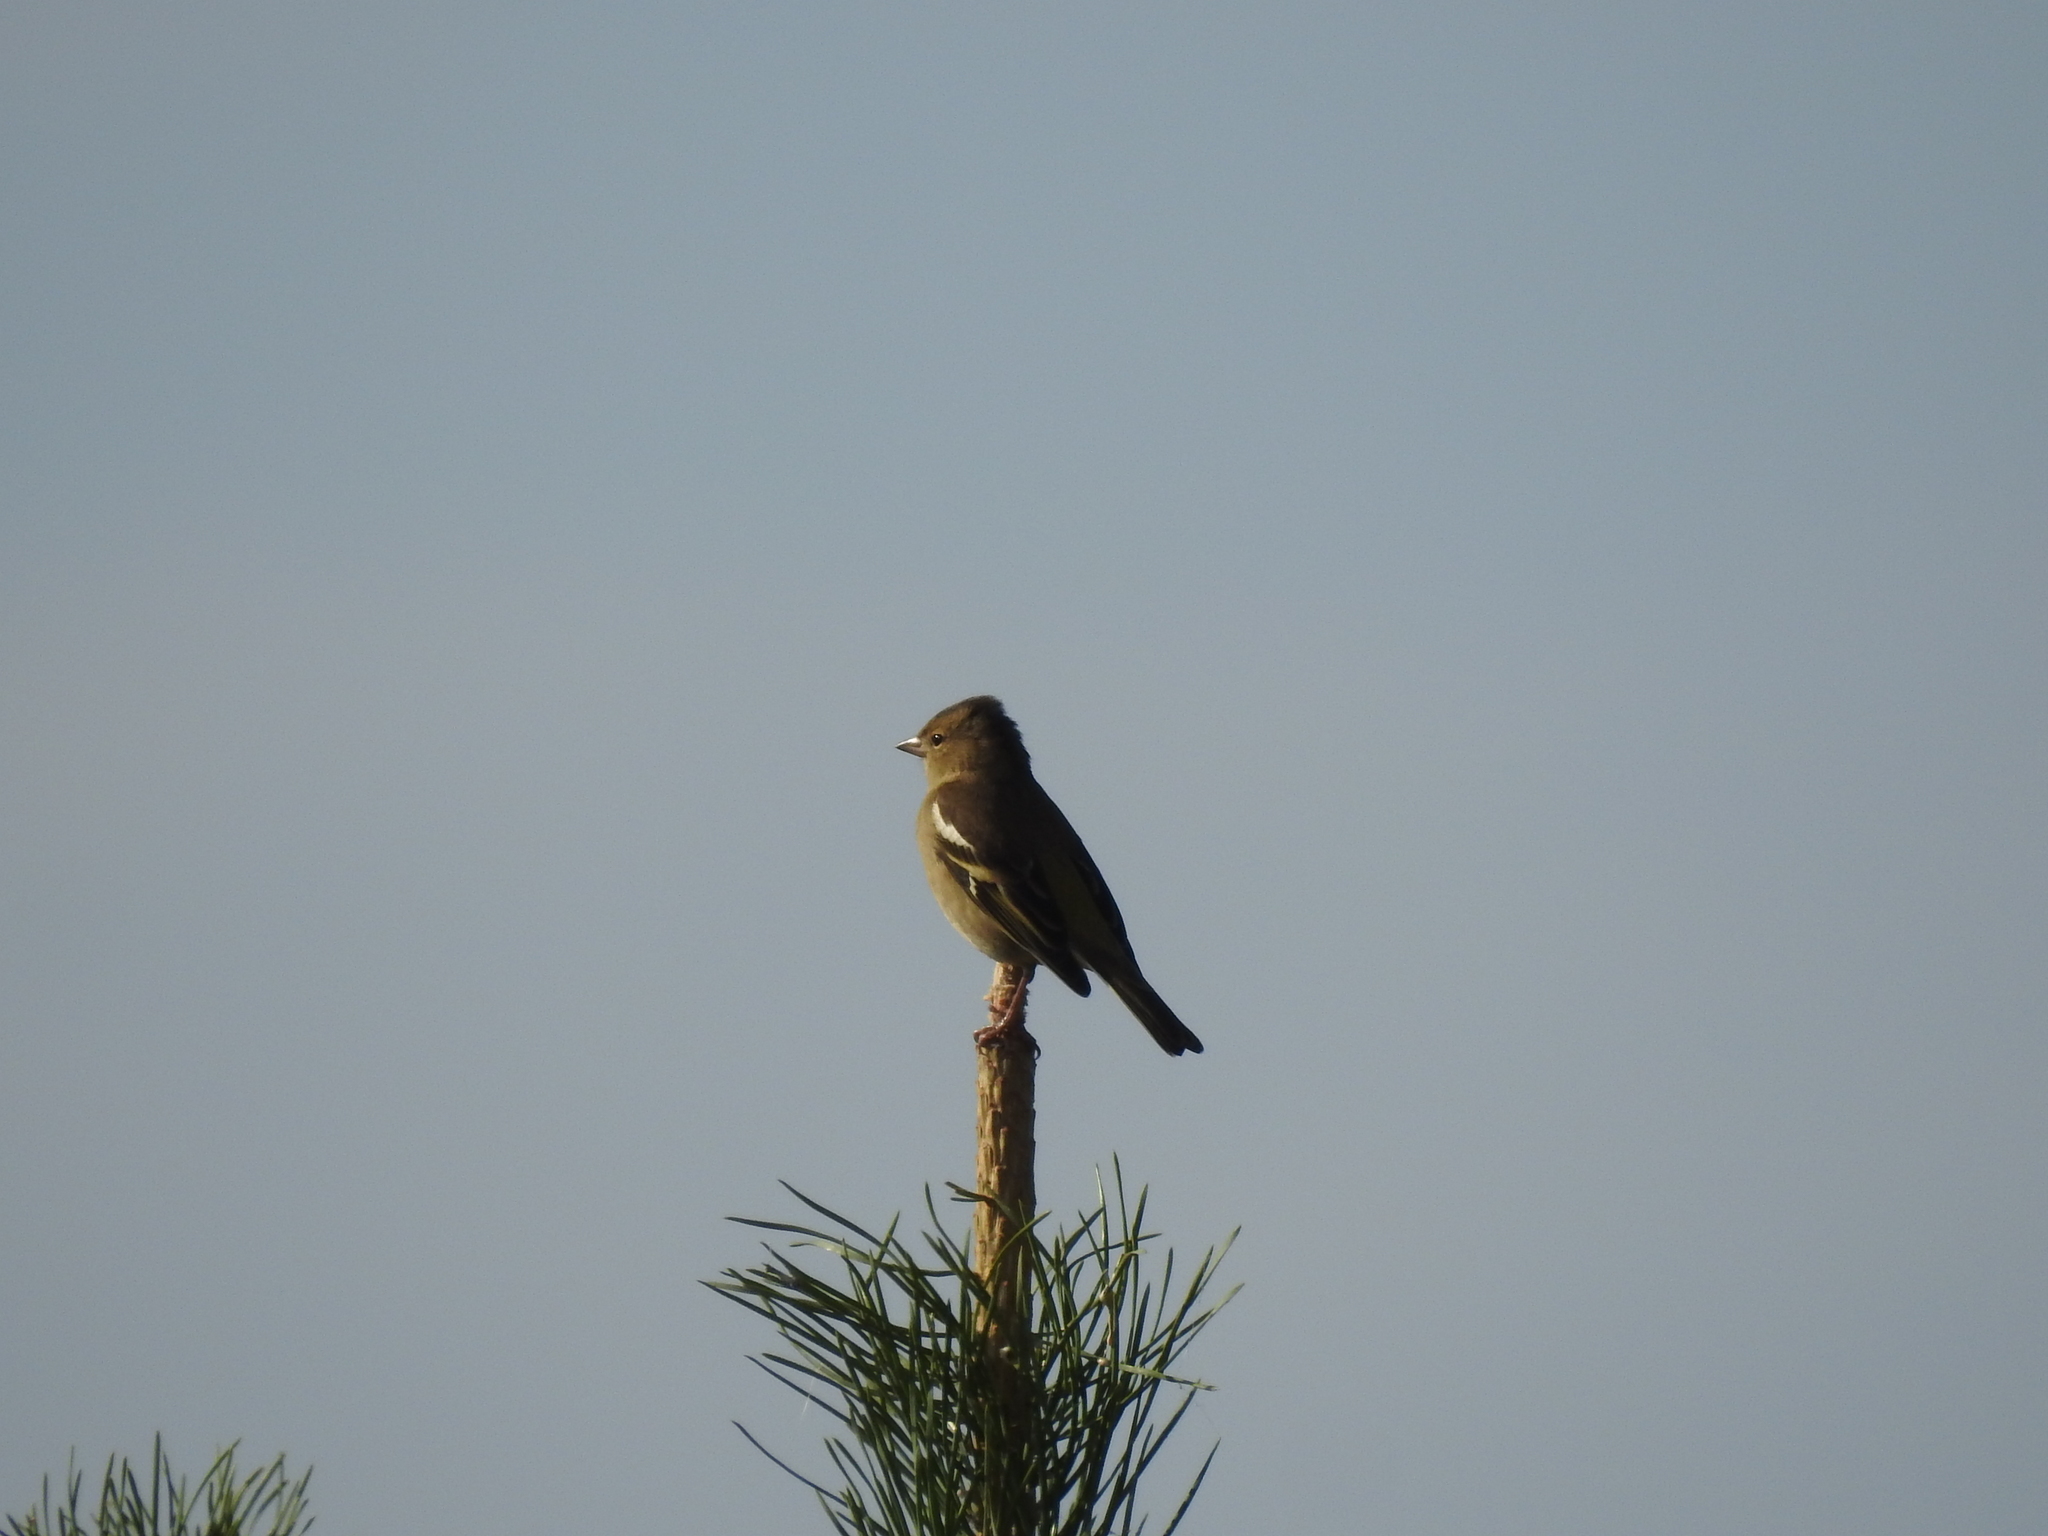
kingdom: Animalia
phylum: Chordata
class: Aves
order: Passeriformes
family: Fringillidae
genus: Fringilla
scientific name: Fringilla coelebs
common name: Common chaffinch
